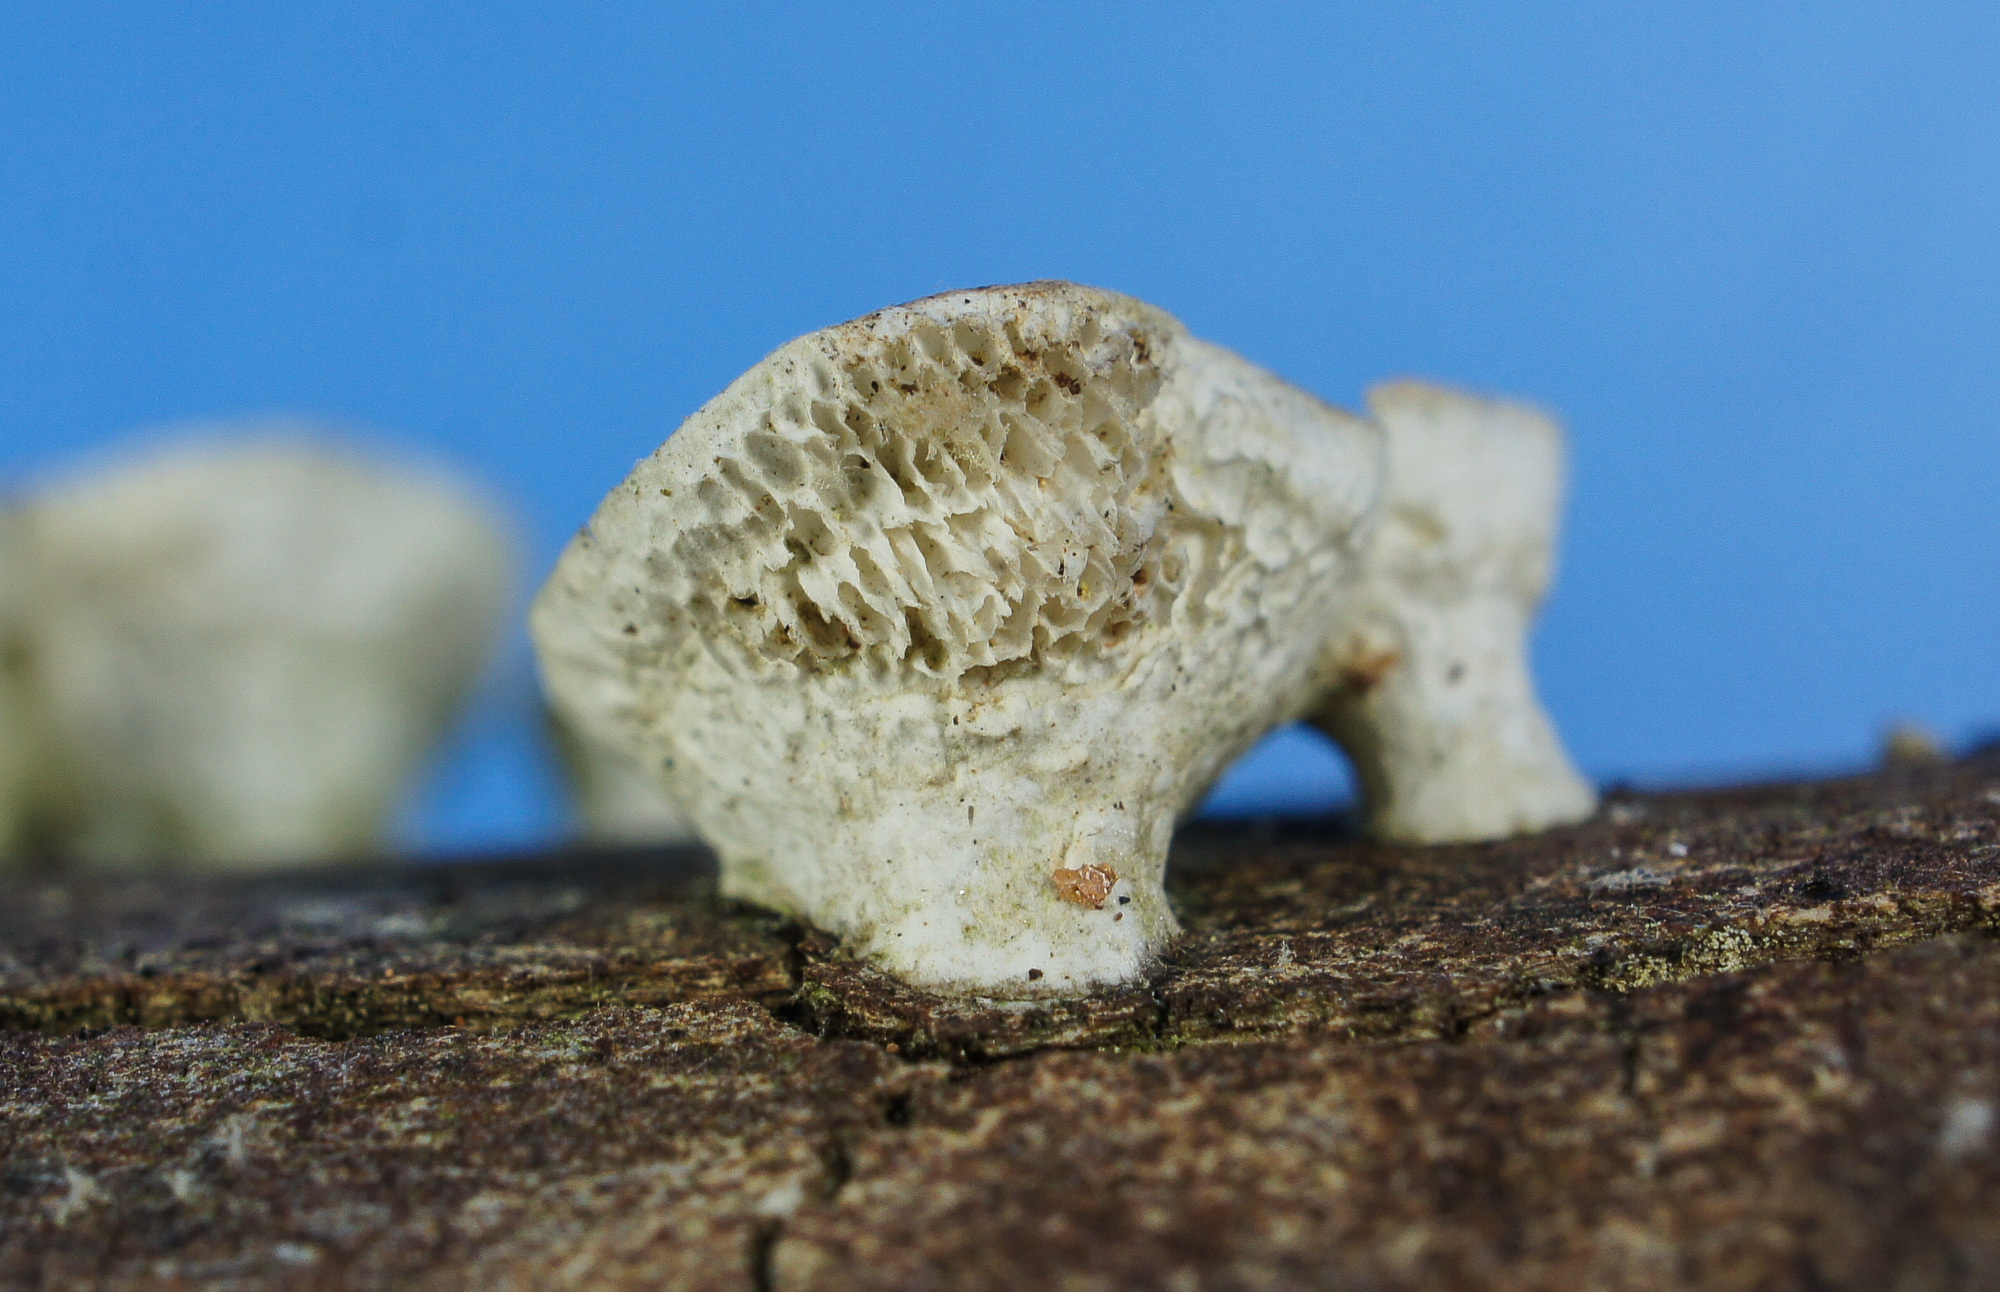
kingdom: Fungi
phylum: Basidiomycota
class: Agaricomycetes
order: Polyporales
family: Polyporaceae
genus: Poronidulus
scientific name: Poronidulus conchifer
